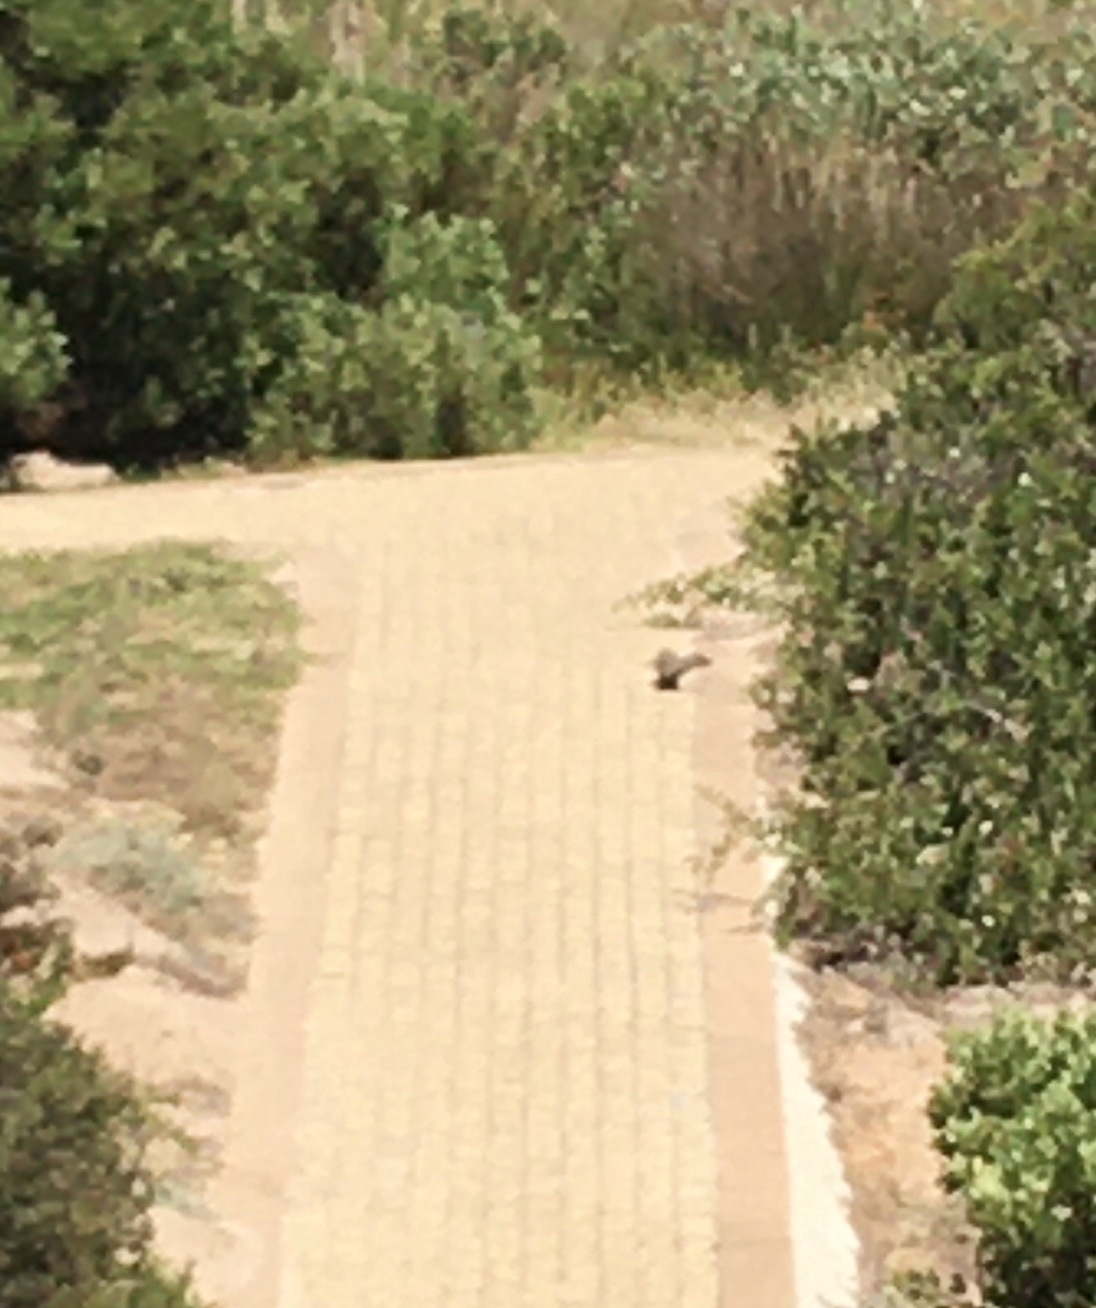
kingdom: Animalia
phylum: Chordata
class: Mammalia
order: Carnivora
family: Herpestidae
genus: Galerella
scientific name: Galerella pulverulenta
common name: Cape gray mongoose
